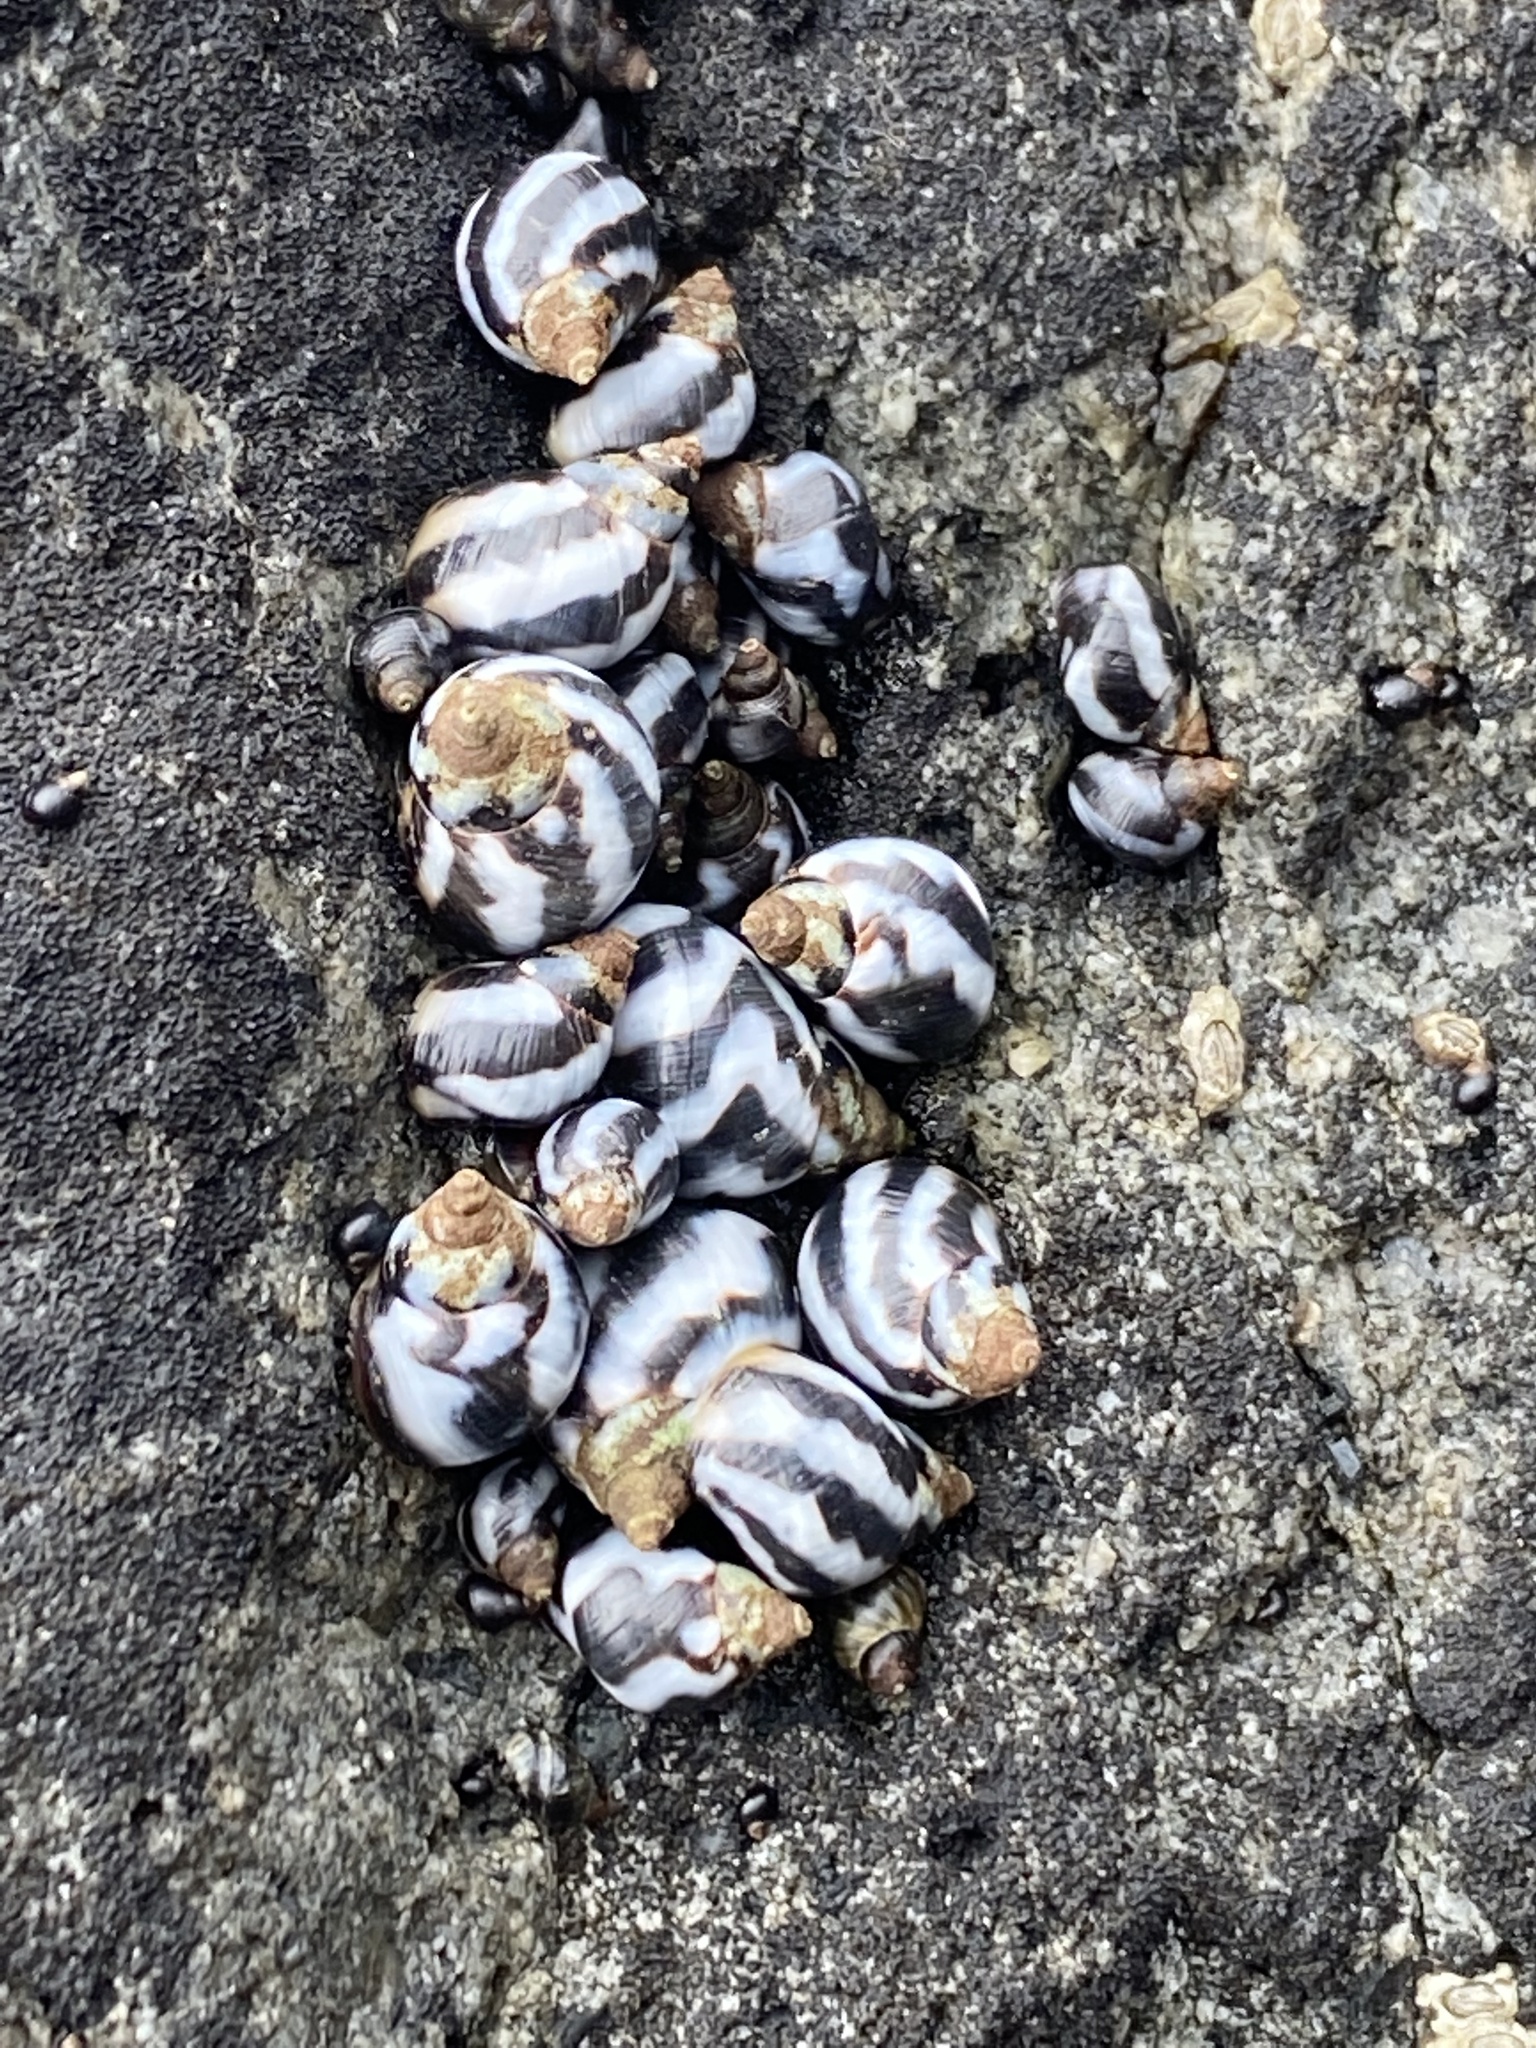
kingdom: Animalia
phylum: Mollusca
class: Gastropoda
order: Littorinimorpha
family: Littorinidae
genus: Echinolittorina
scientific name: Echinolittorina peruviana
